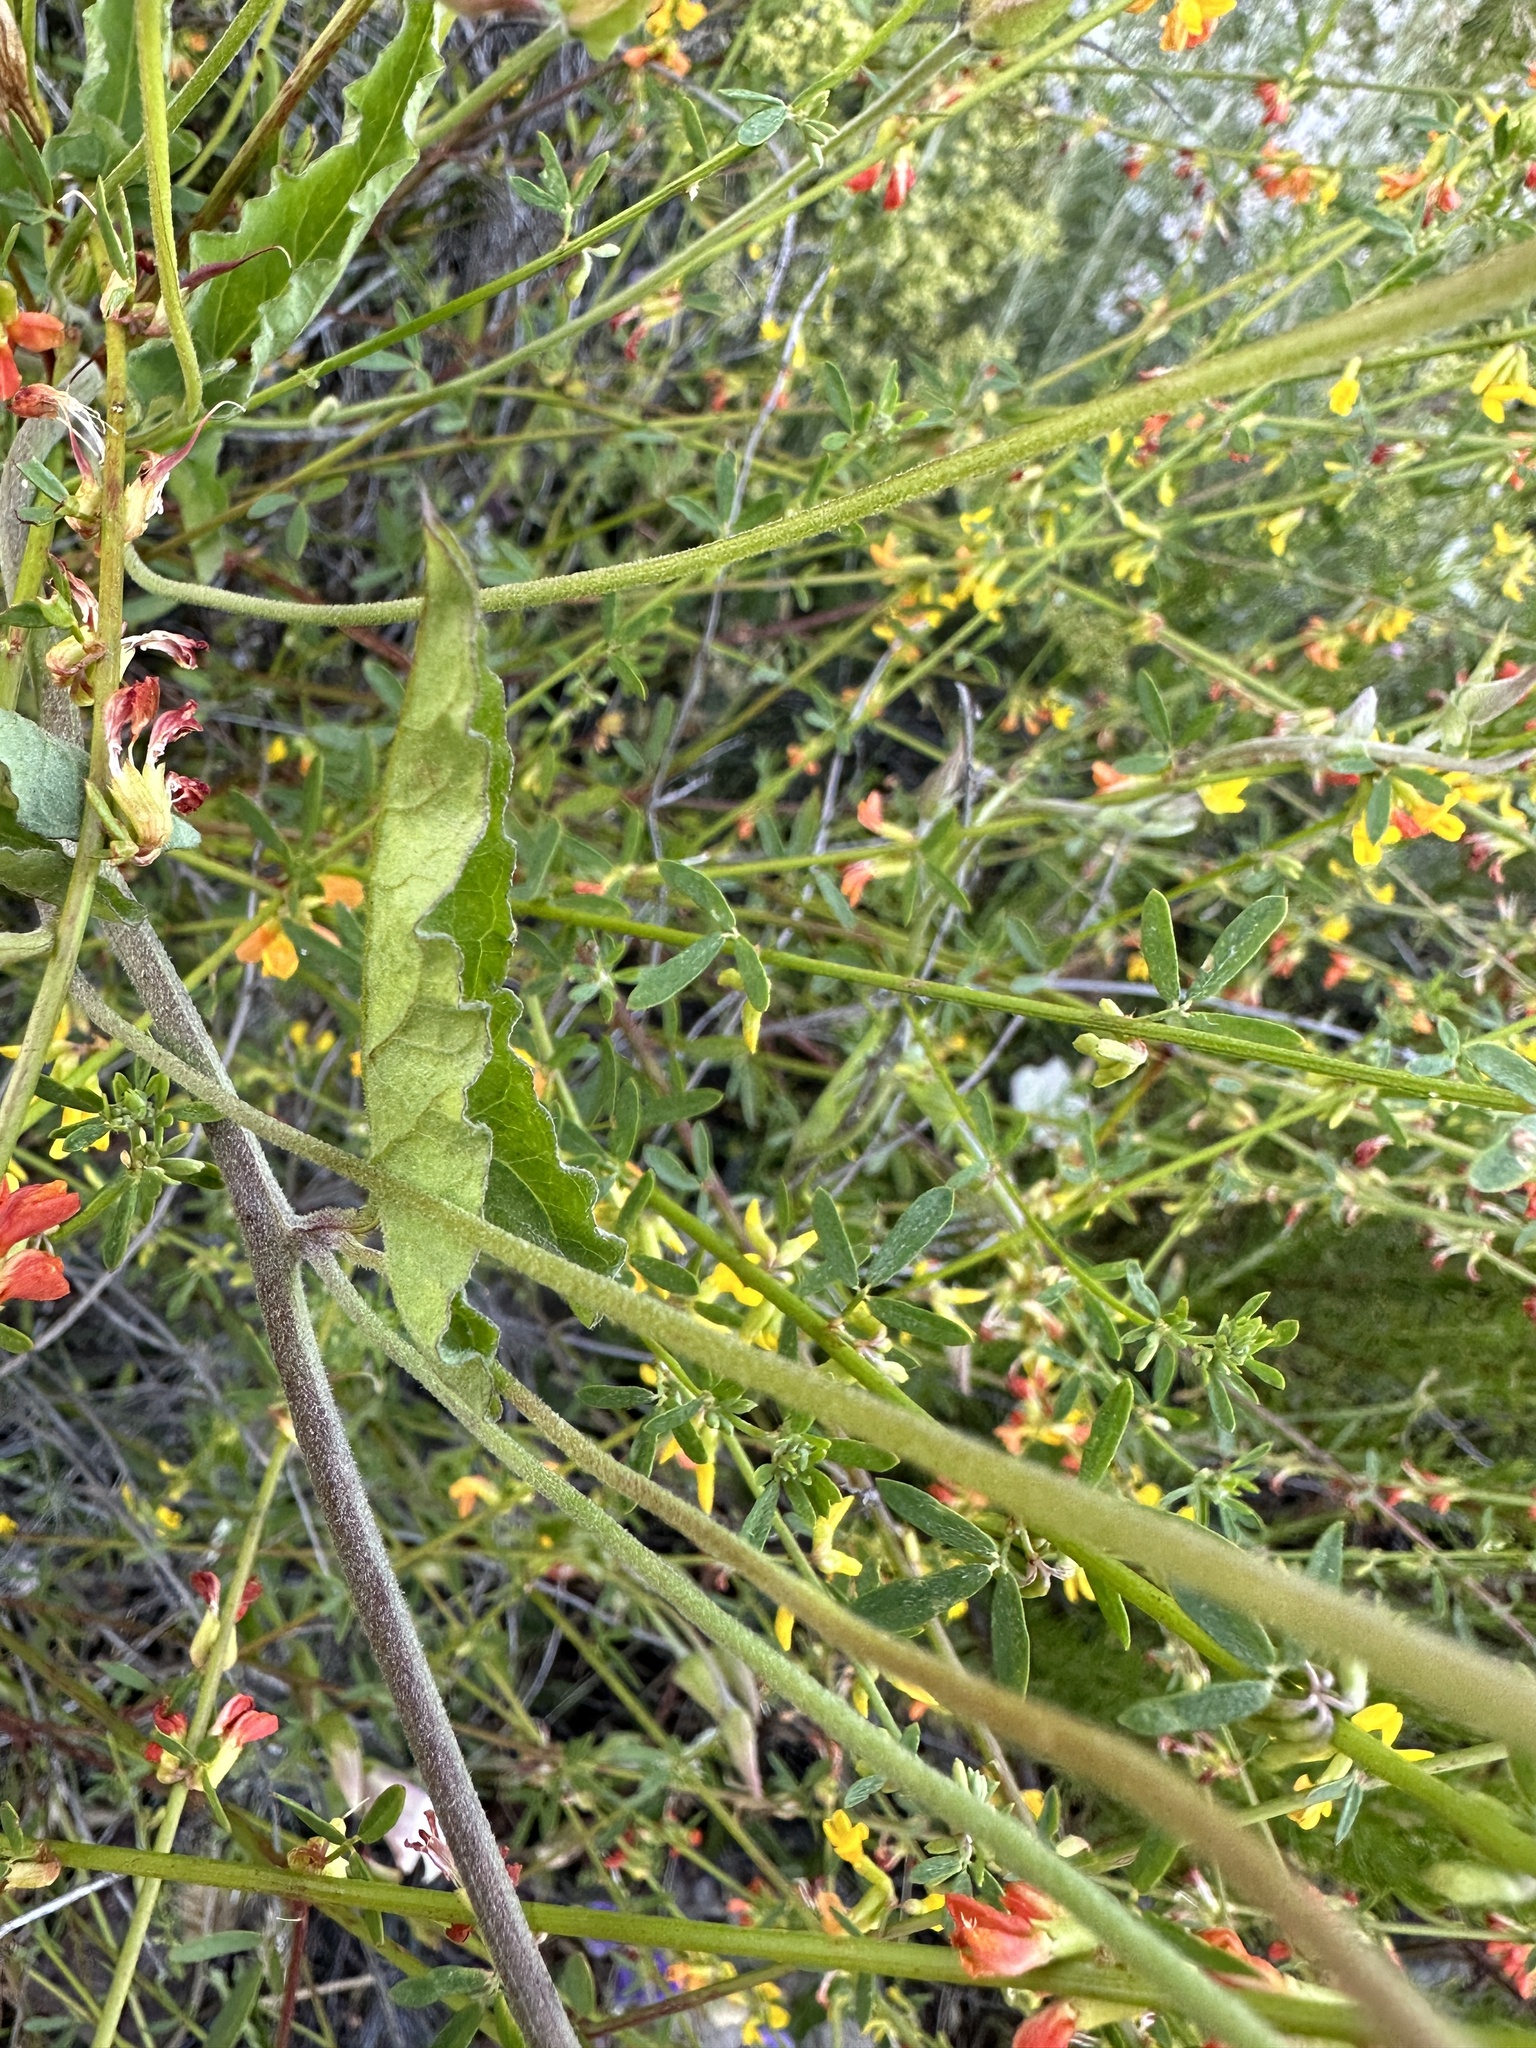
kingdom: Plantae
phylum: Tracheophyta
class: Magnoliopsida
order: Solanales
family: Convolvulaceae
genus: Calystegia
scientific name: Calystegia macrostegia
